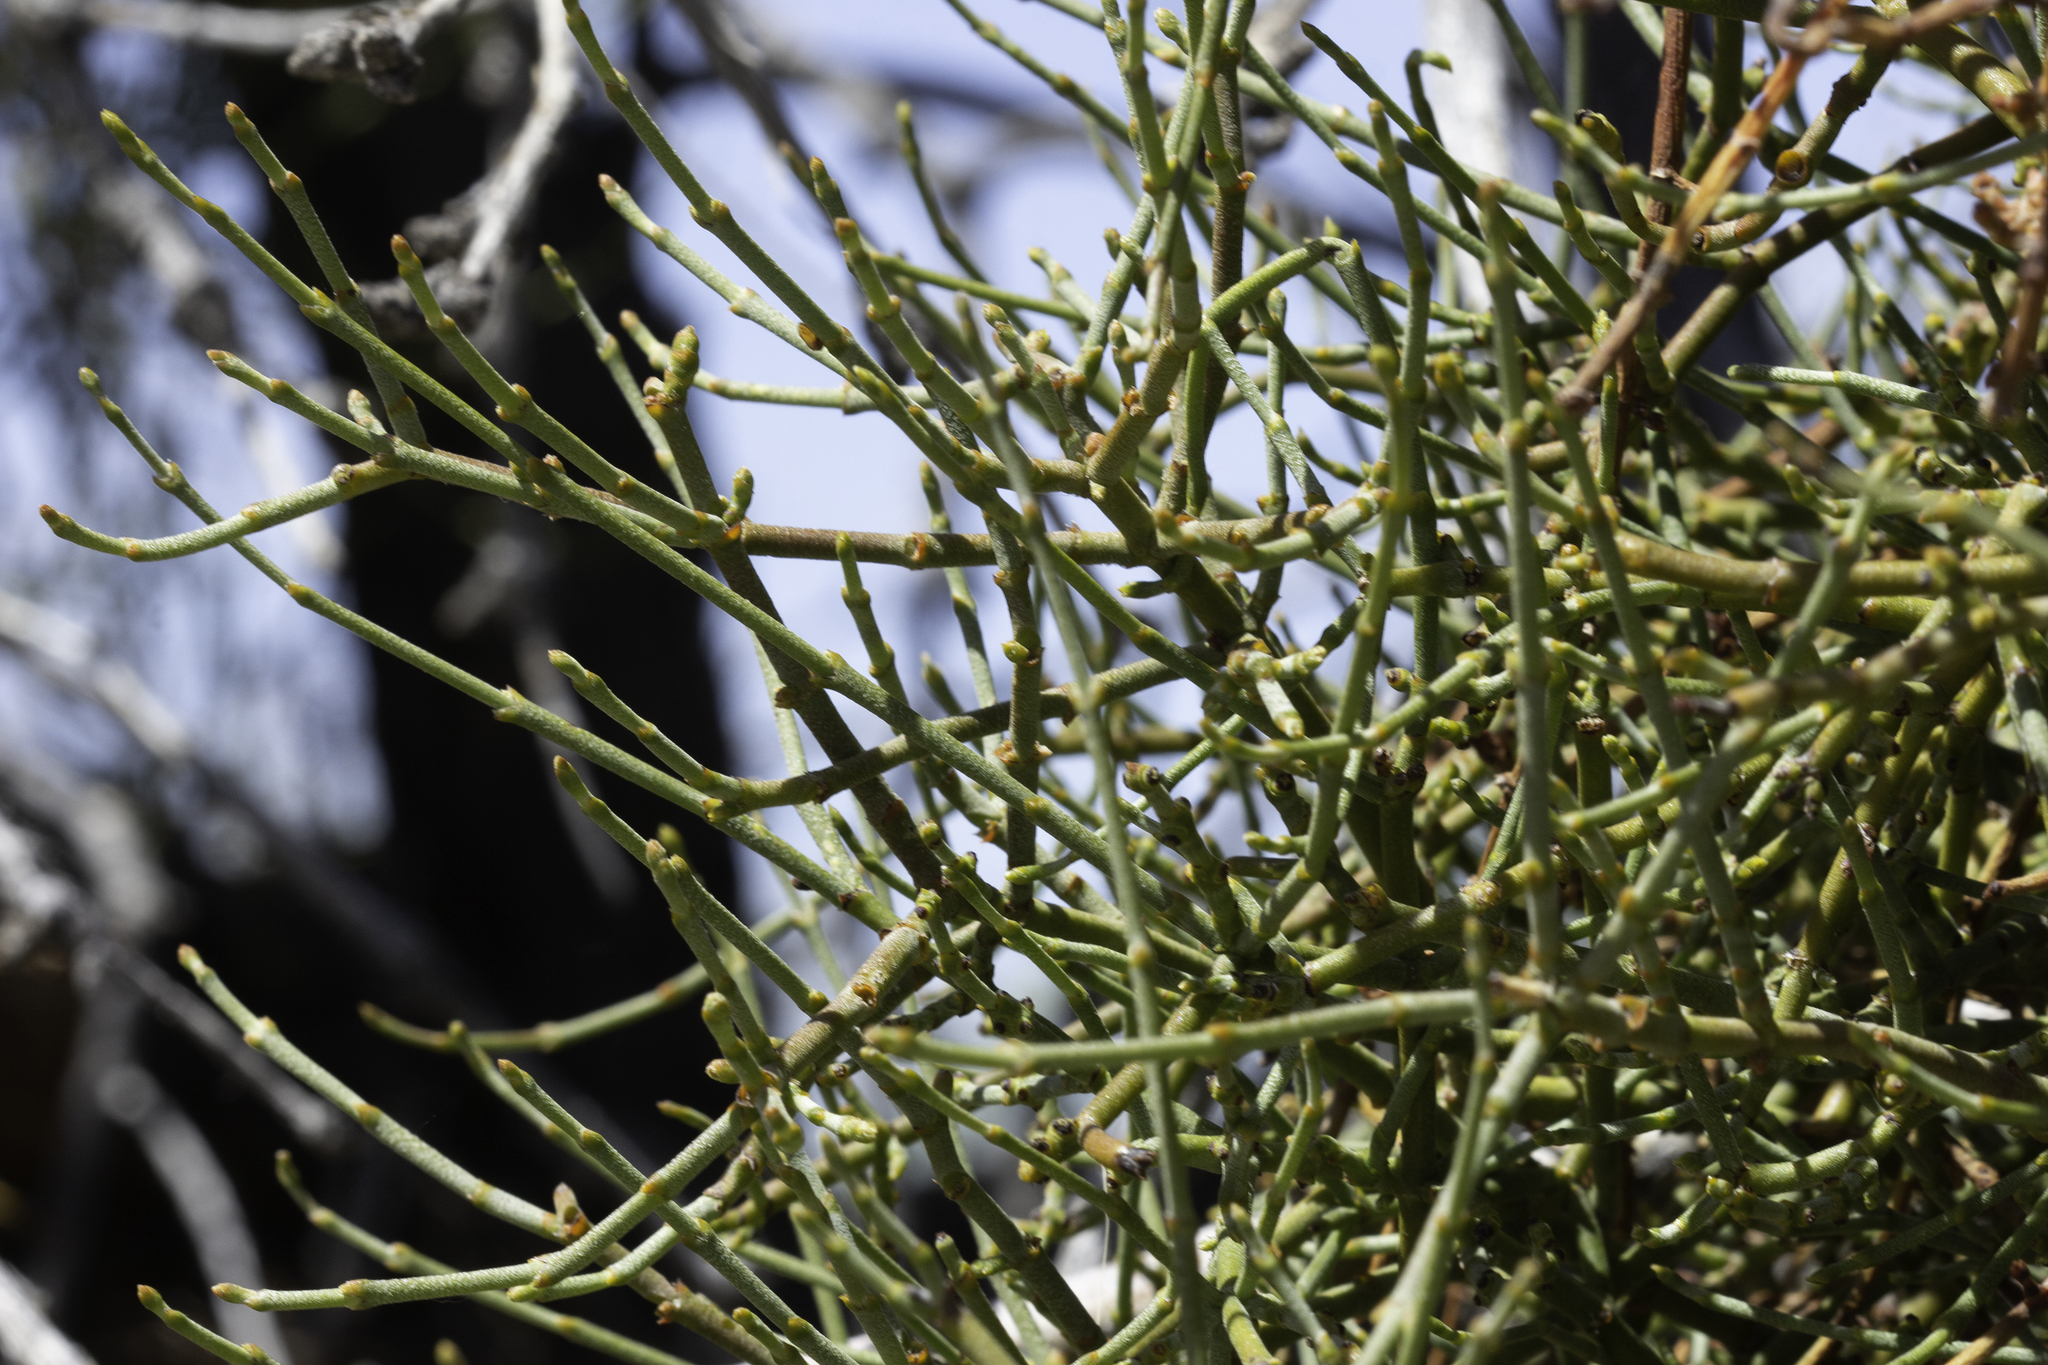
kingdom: Plantae
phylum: Tracheophyta
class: Gnetopsida
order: Ephedrales
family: Ephedraceae
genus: Ephedra
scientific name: Ephedra californica
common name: California ephedra
